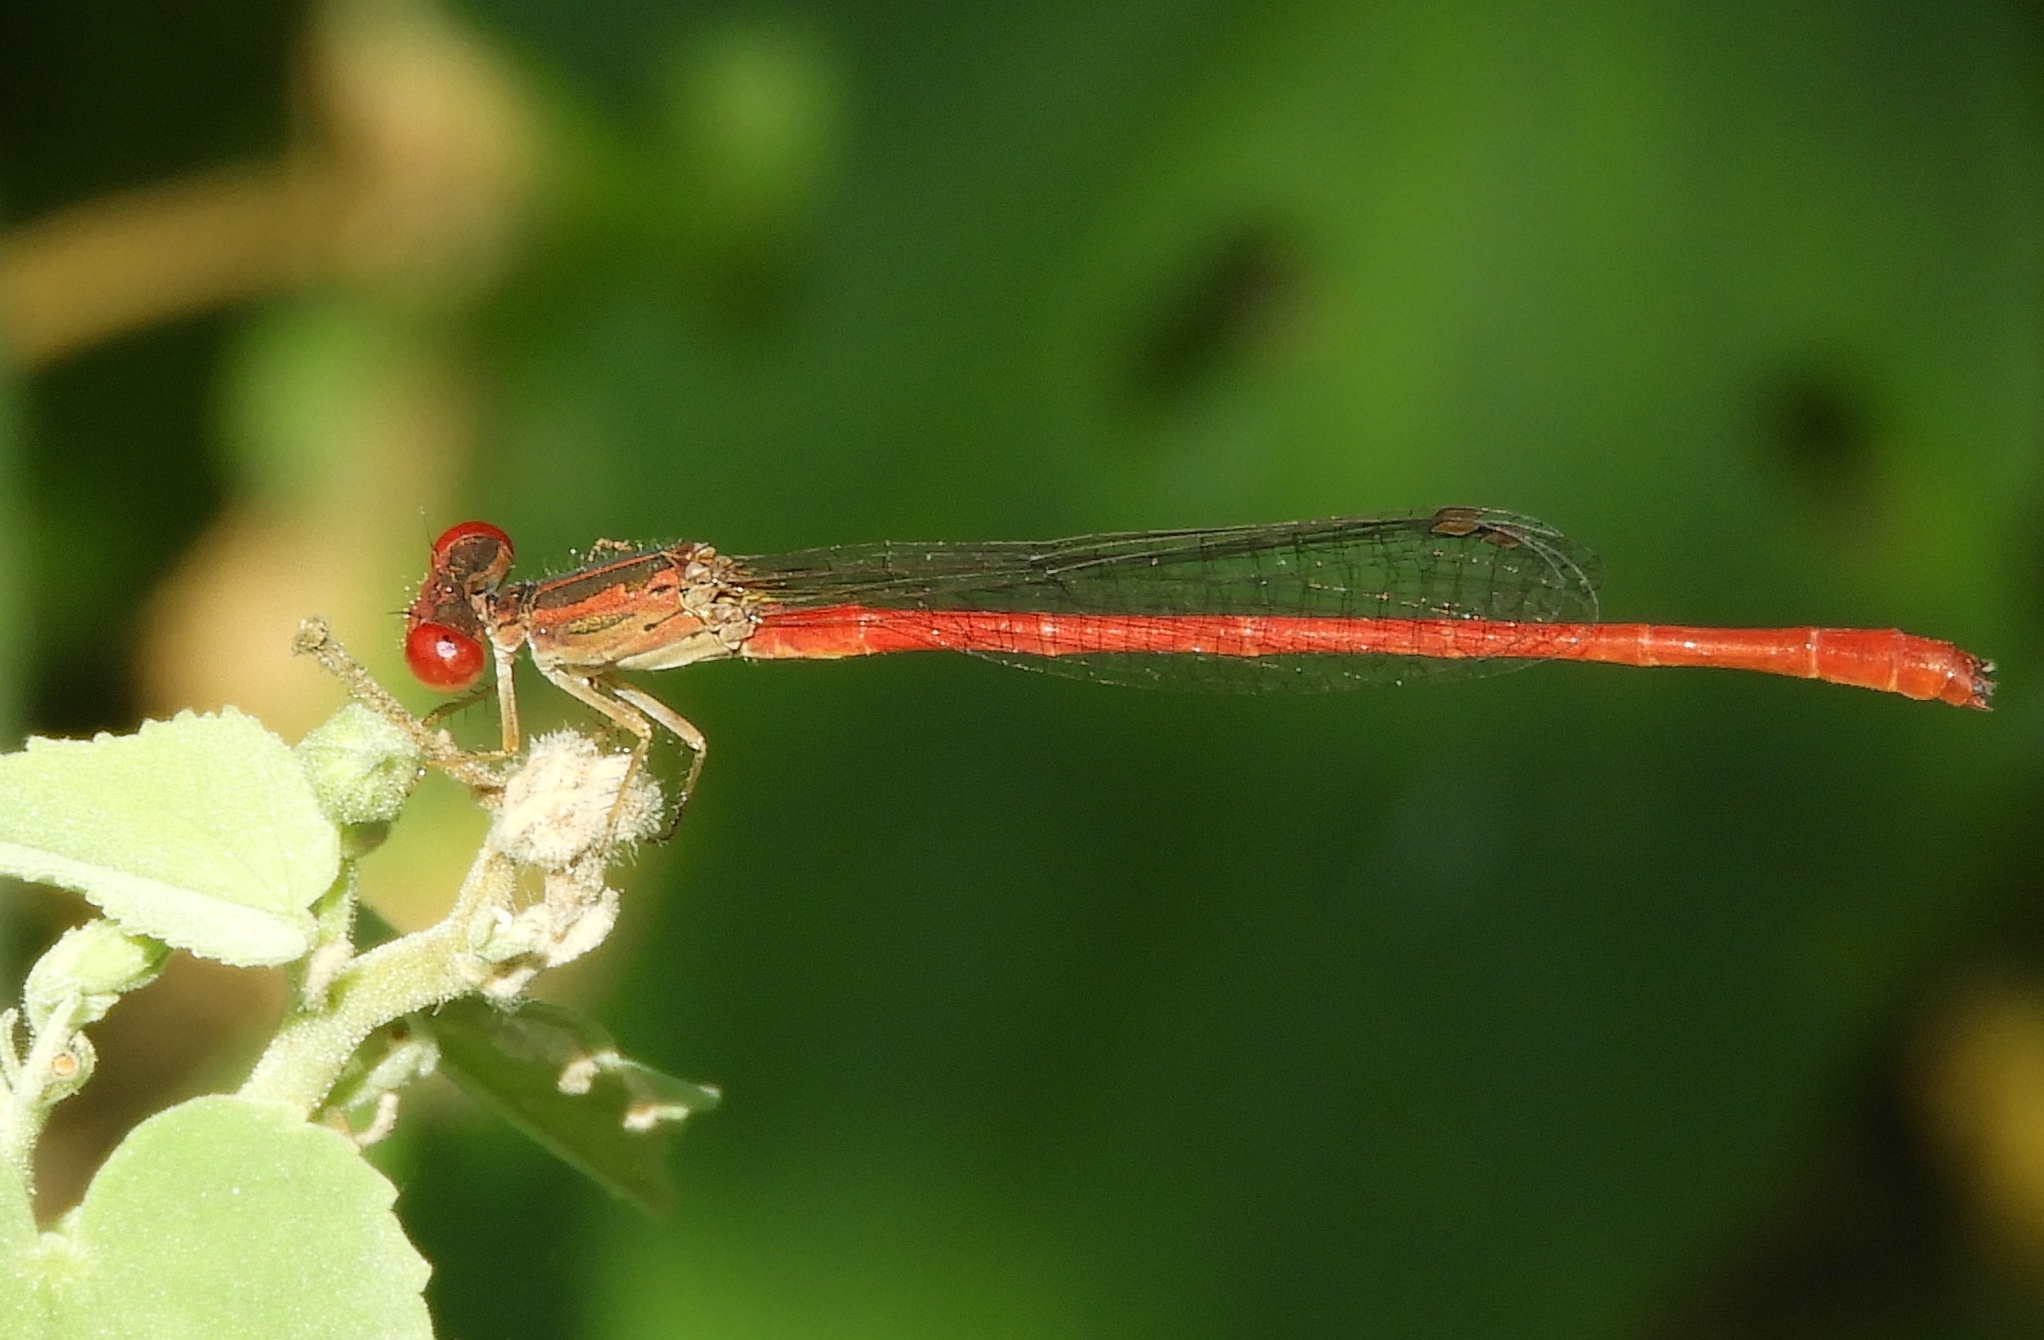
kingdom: Animalia
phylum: Arthropoda
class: Insecta
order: Odonata
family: Coenagrionidae
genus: Telebasis
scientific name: Telebasis salva
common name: Desert firetail
